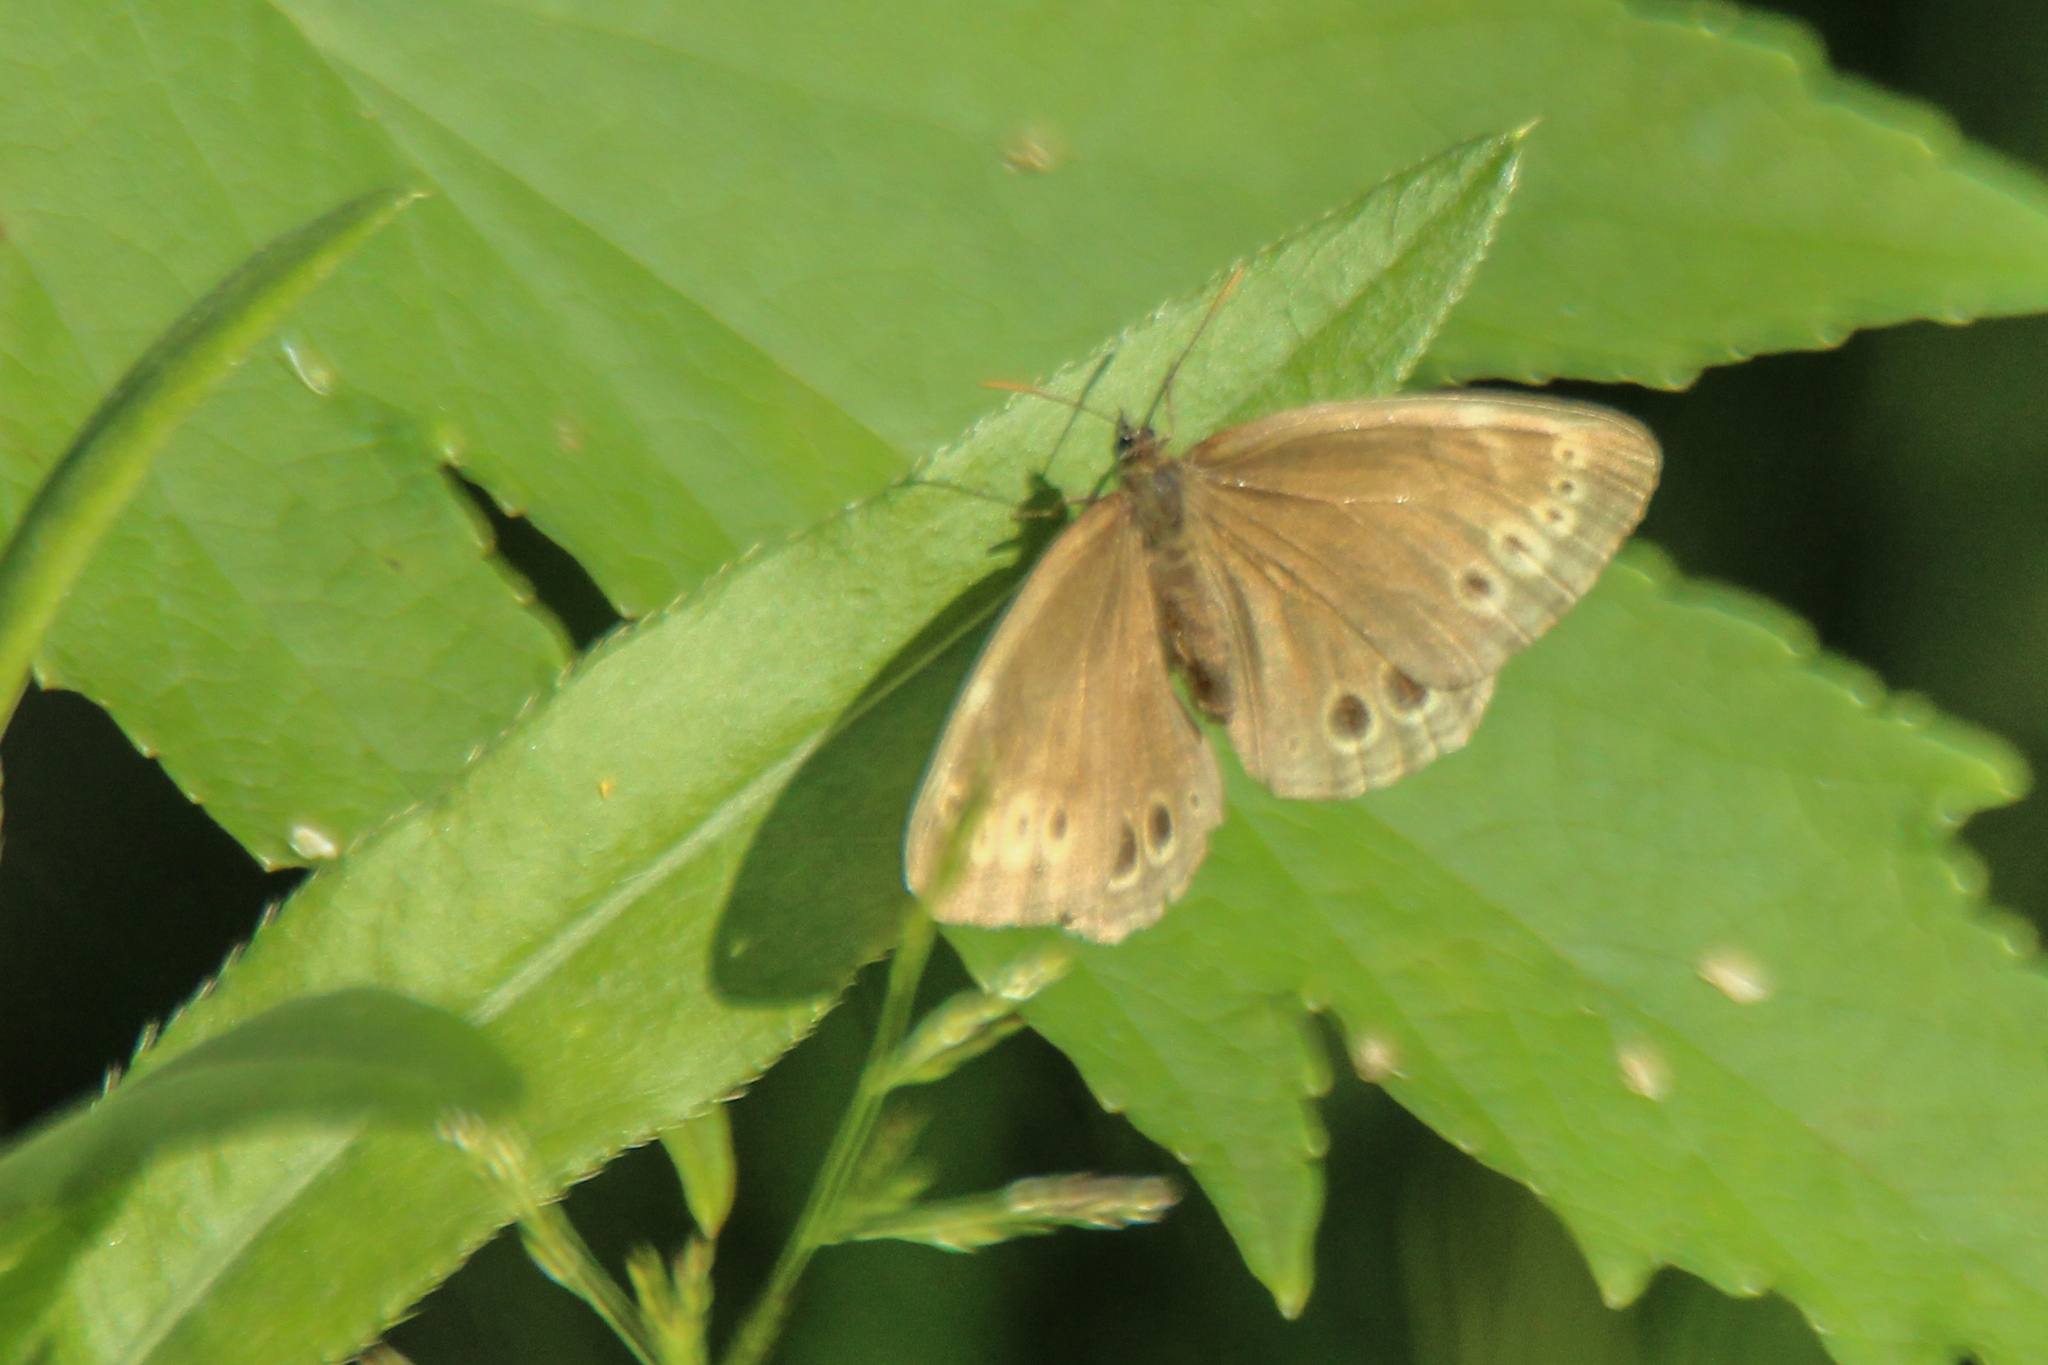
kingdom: Animalia
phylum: Arthropoda
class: Insecta
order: Lepidoptera
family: Nymphalidae
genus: Pararge
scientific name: Pararge Lopinga achine
